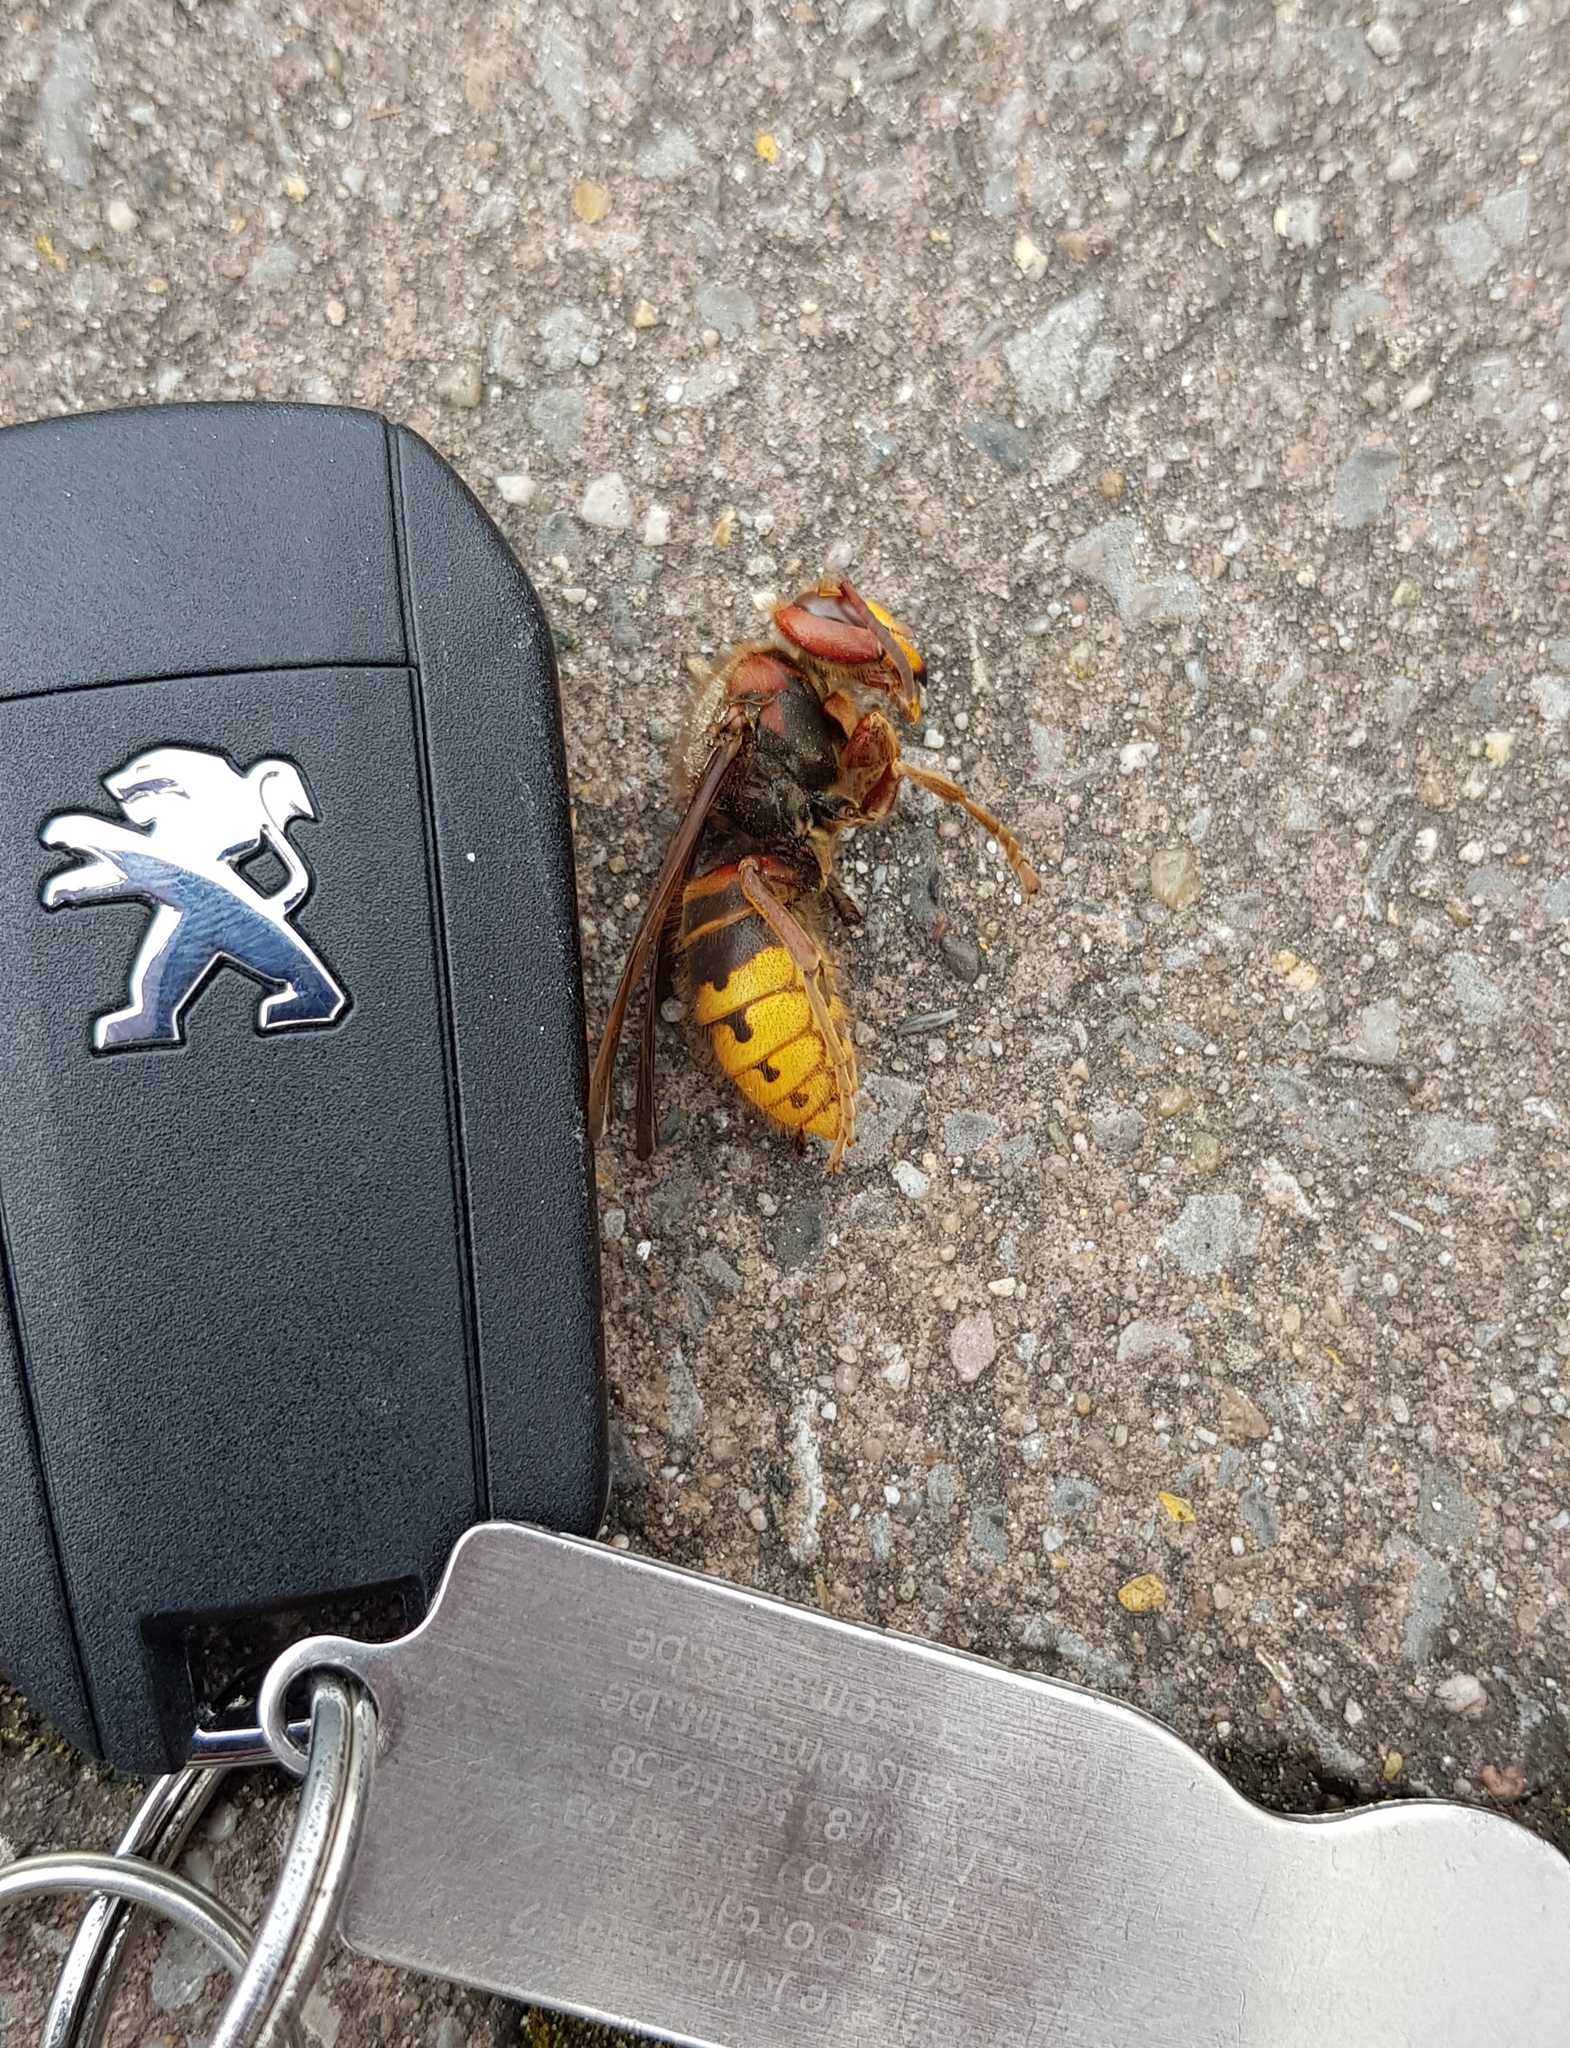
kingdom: Animalia
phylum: Arthropoda
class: Insecta
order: Hymenoptera
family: Vespidae
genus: Vespa
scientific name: Vespa crabro
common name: Hornet
